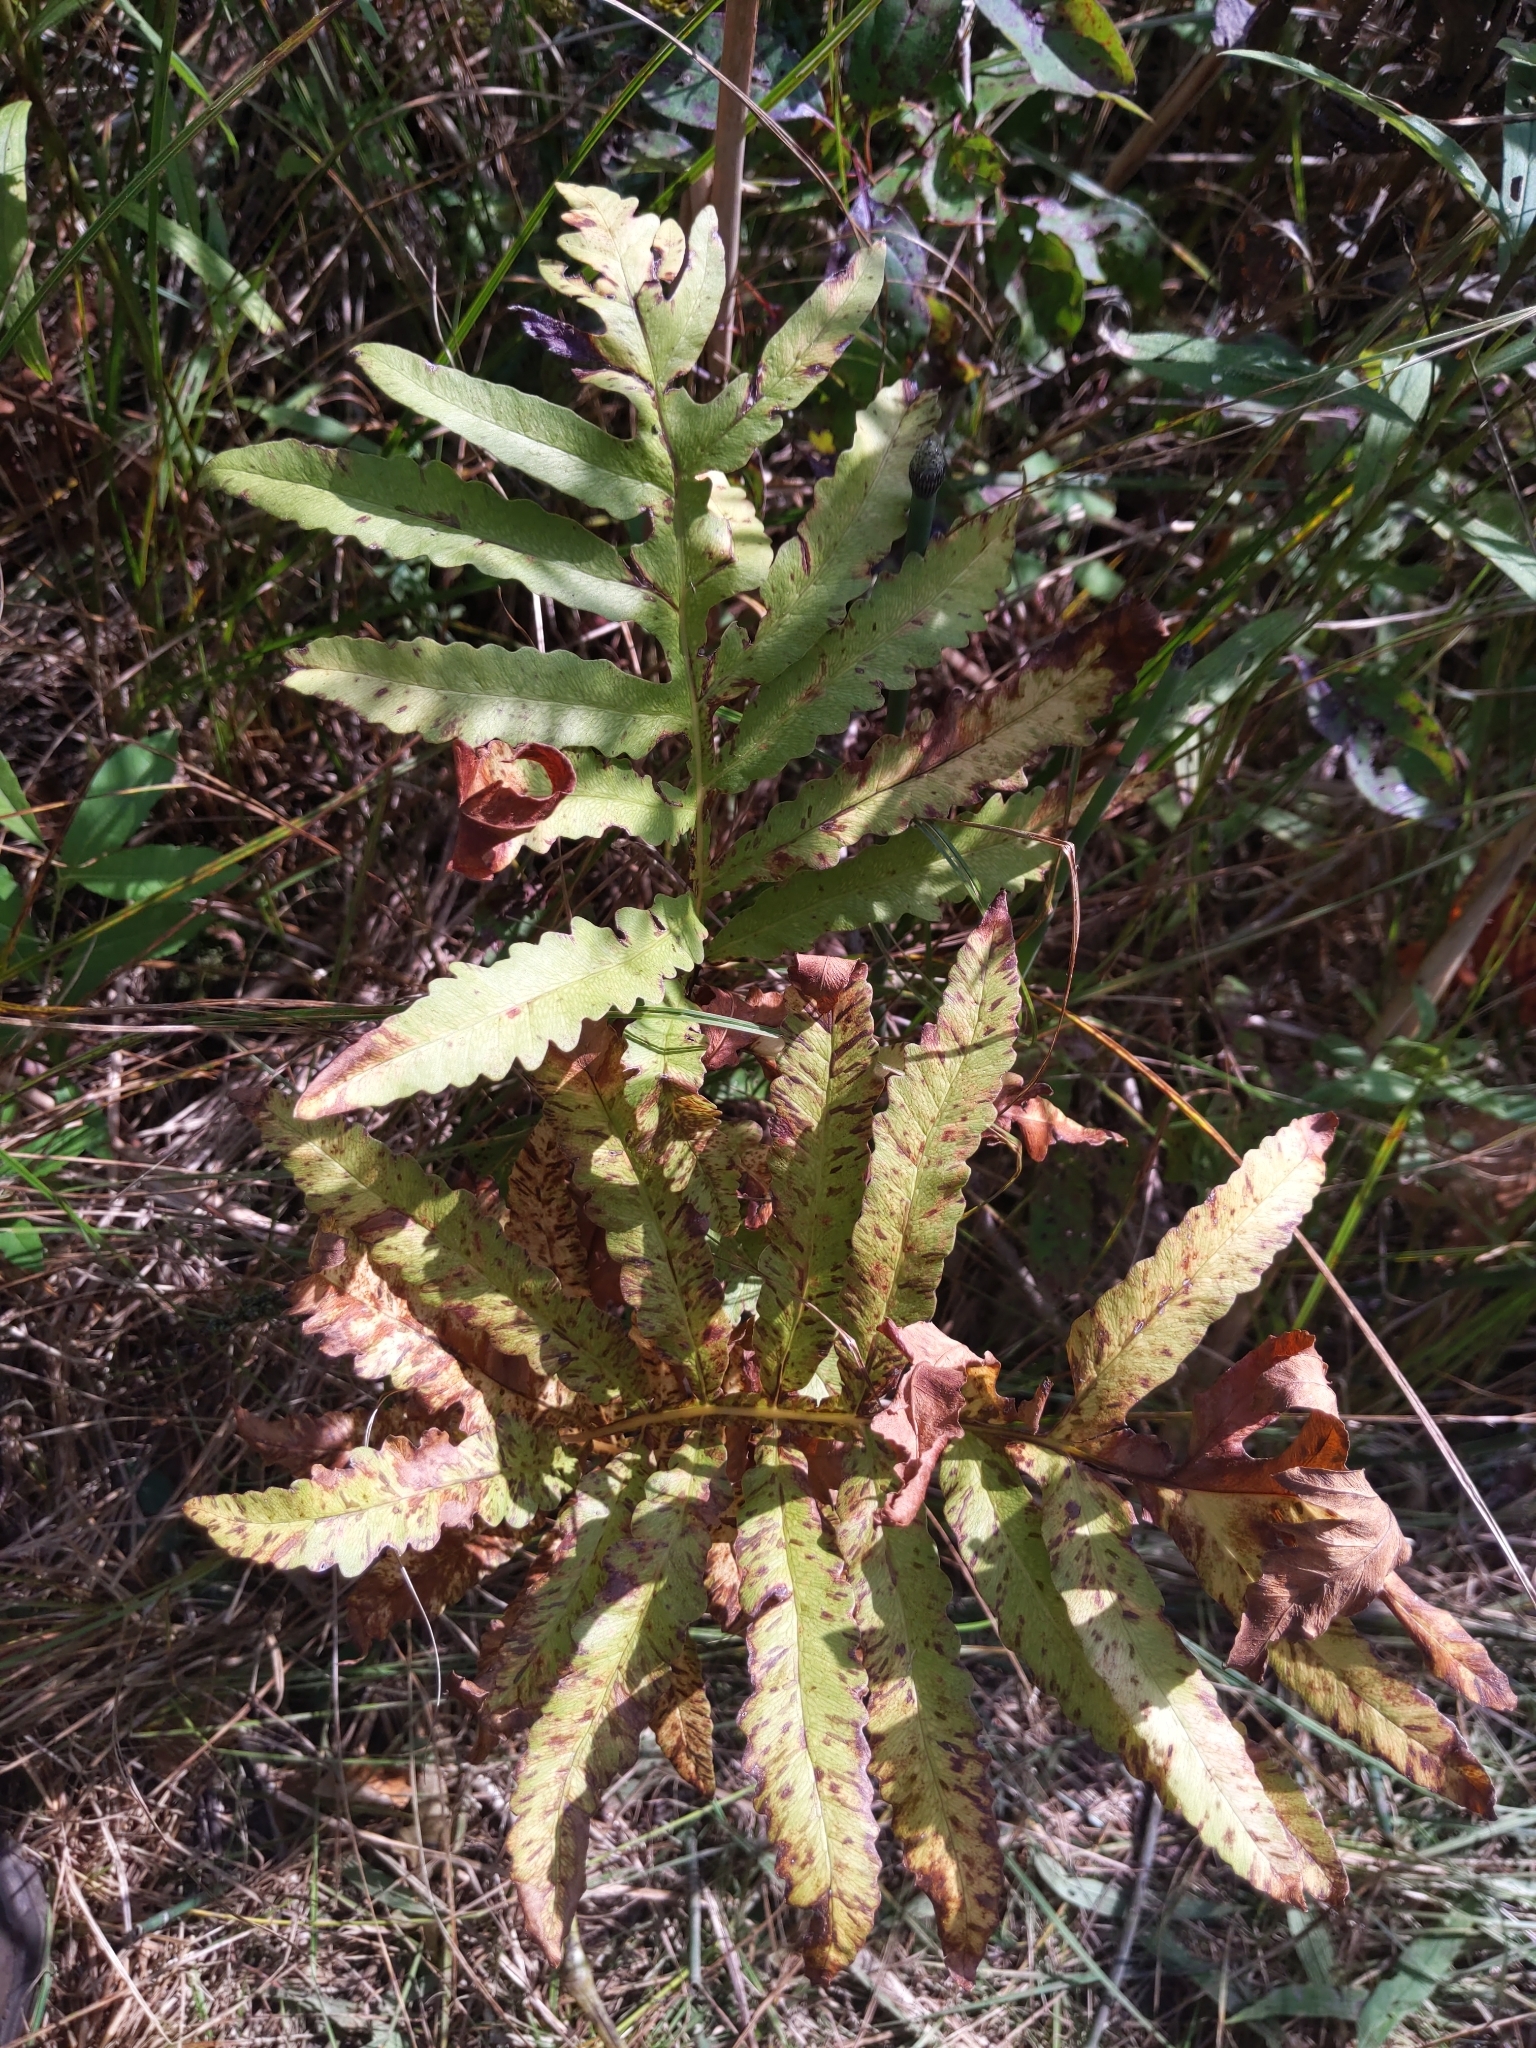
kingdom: Plantae
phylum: Tracheophyta
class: Polypodiopsida
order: Polypodiales
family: Onocleaceae
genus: Onoclea
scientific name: Onoclea sensibilis
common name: Sensitive fern
